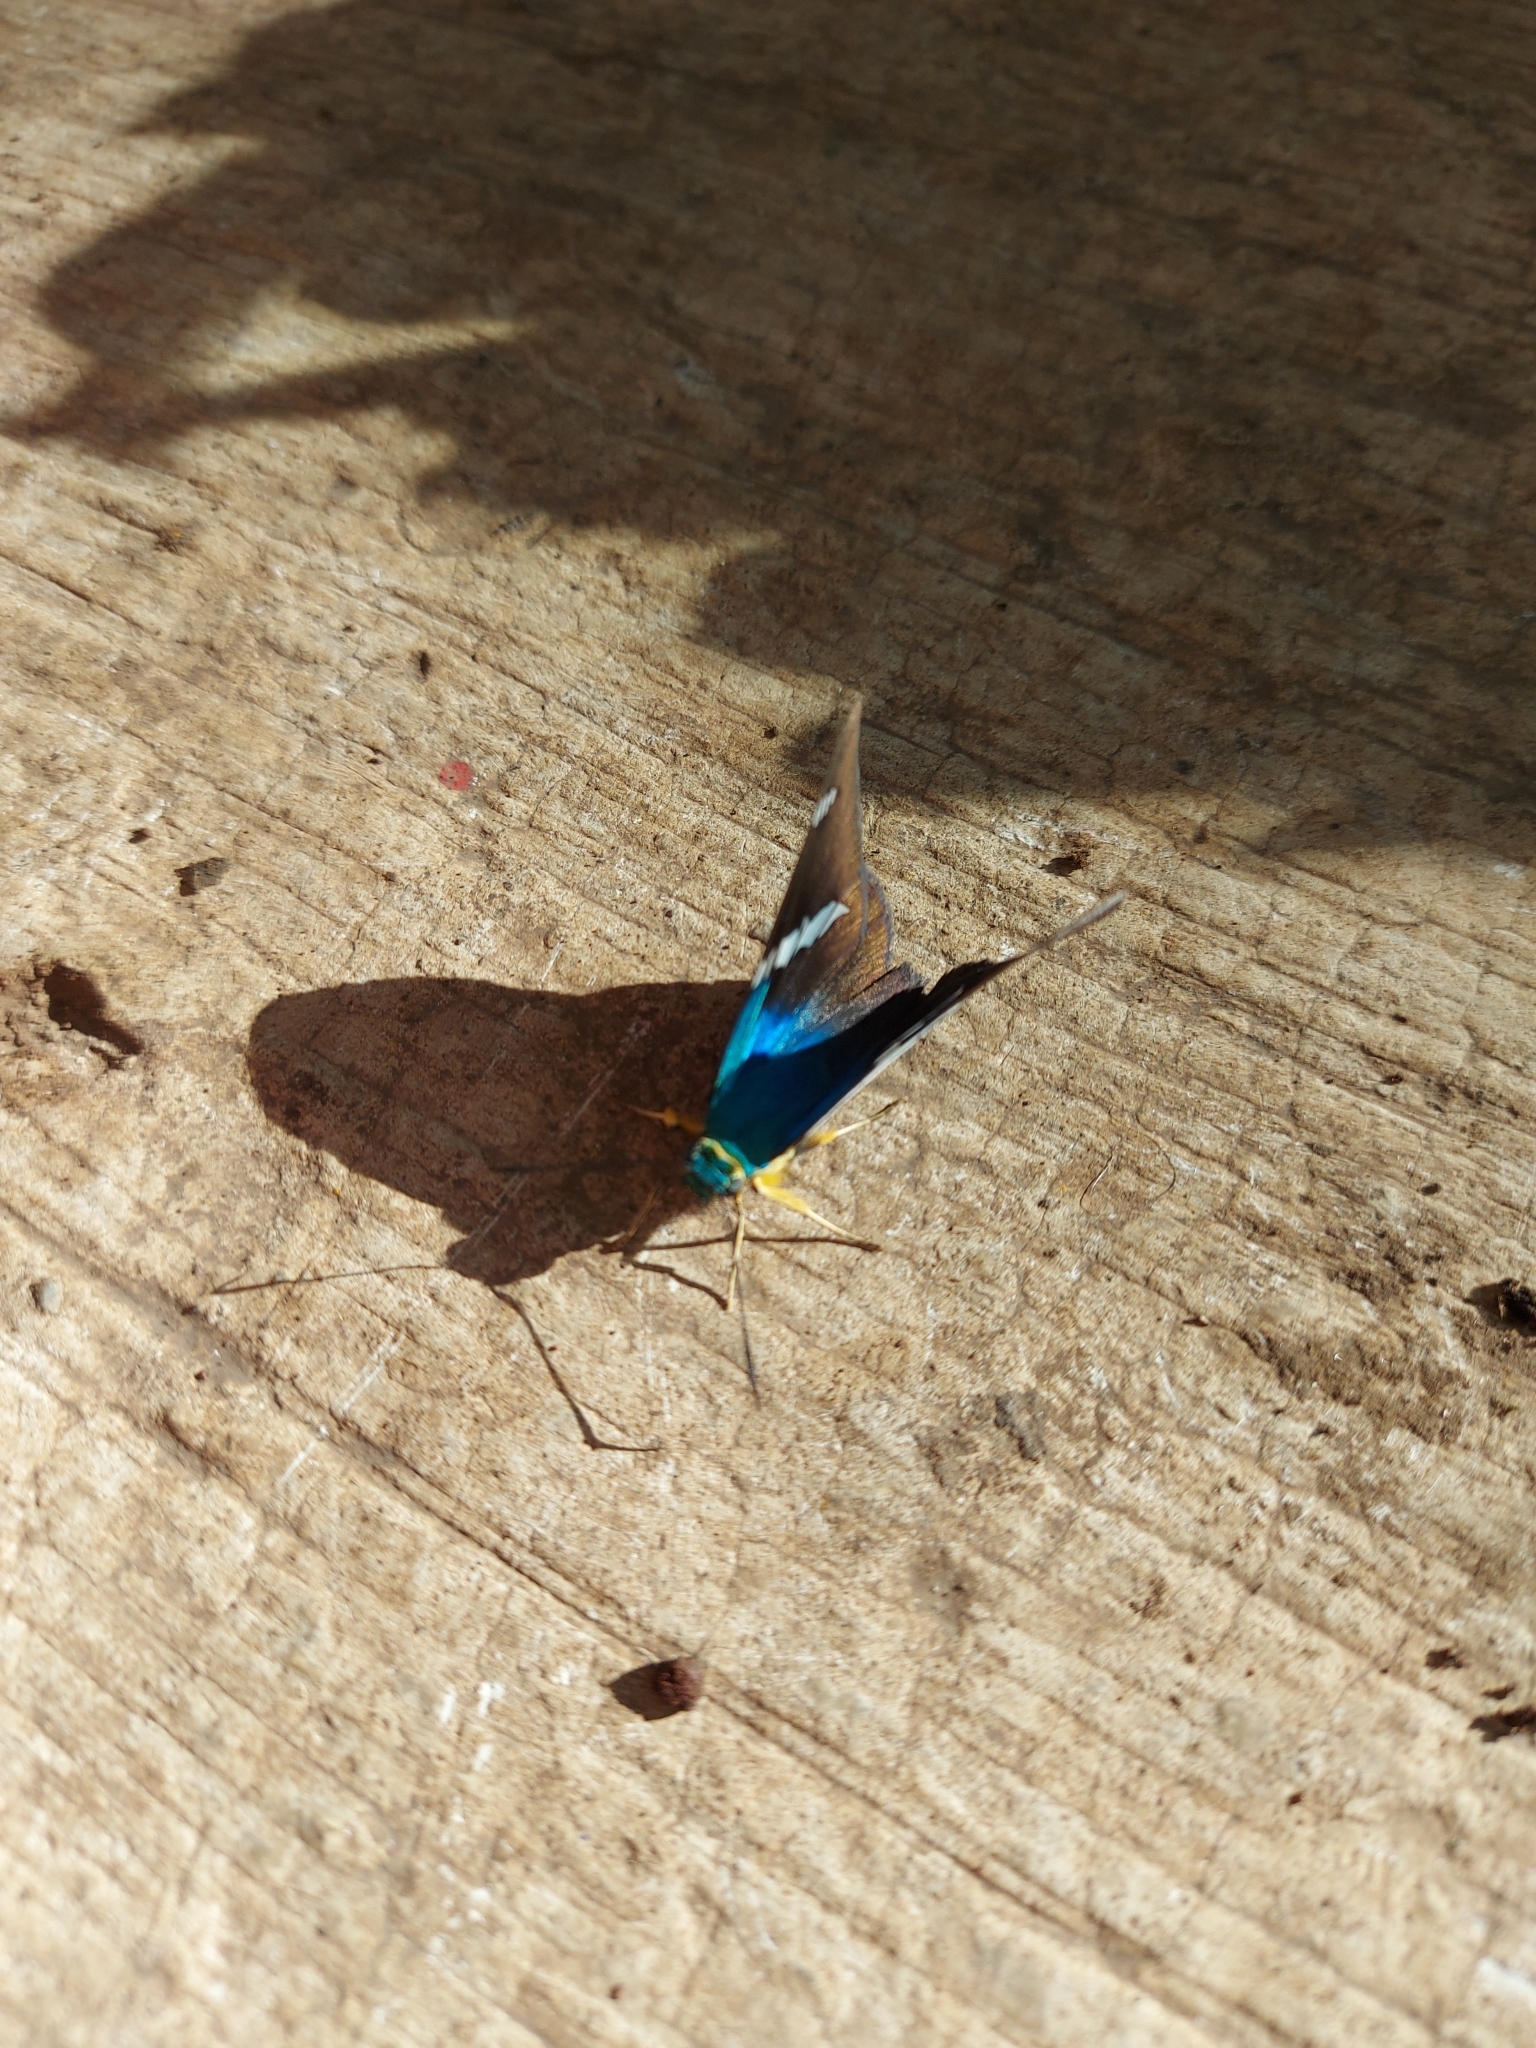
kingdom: Animalia
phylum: Arthropoda
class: Insecta
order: Lepidoptera
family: Hesperiidae
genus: Astraptes
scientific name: Astraptes fulgerator
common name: Two-barred flasher
